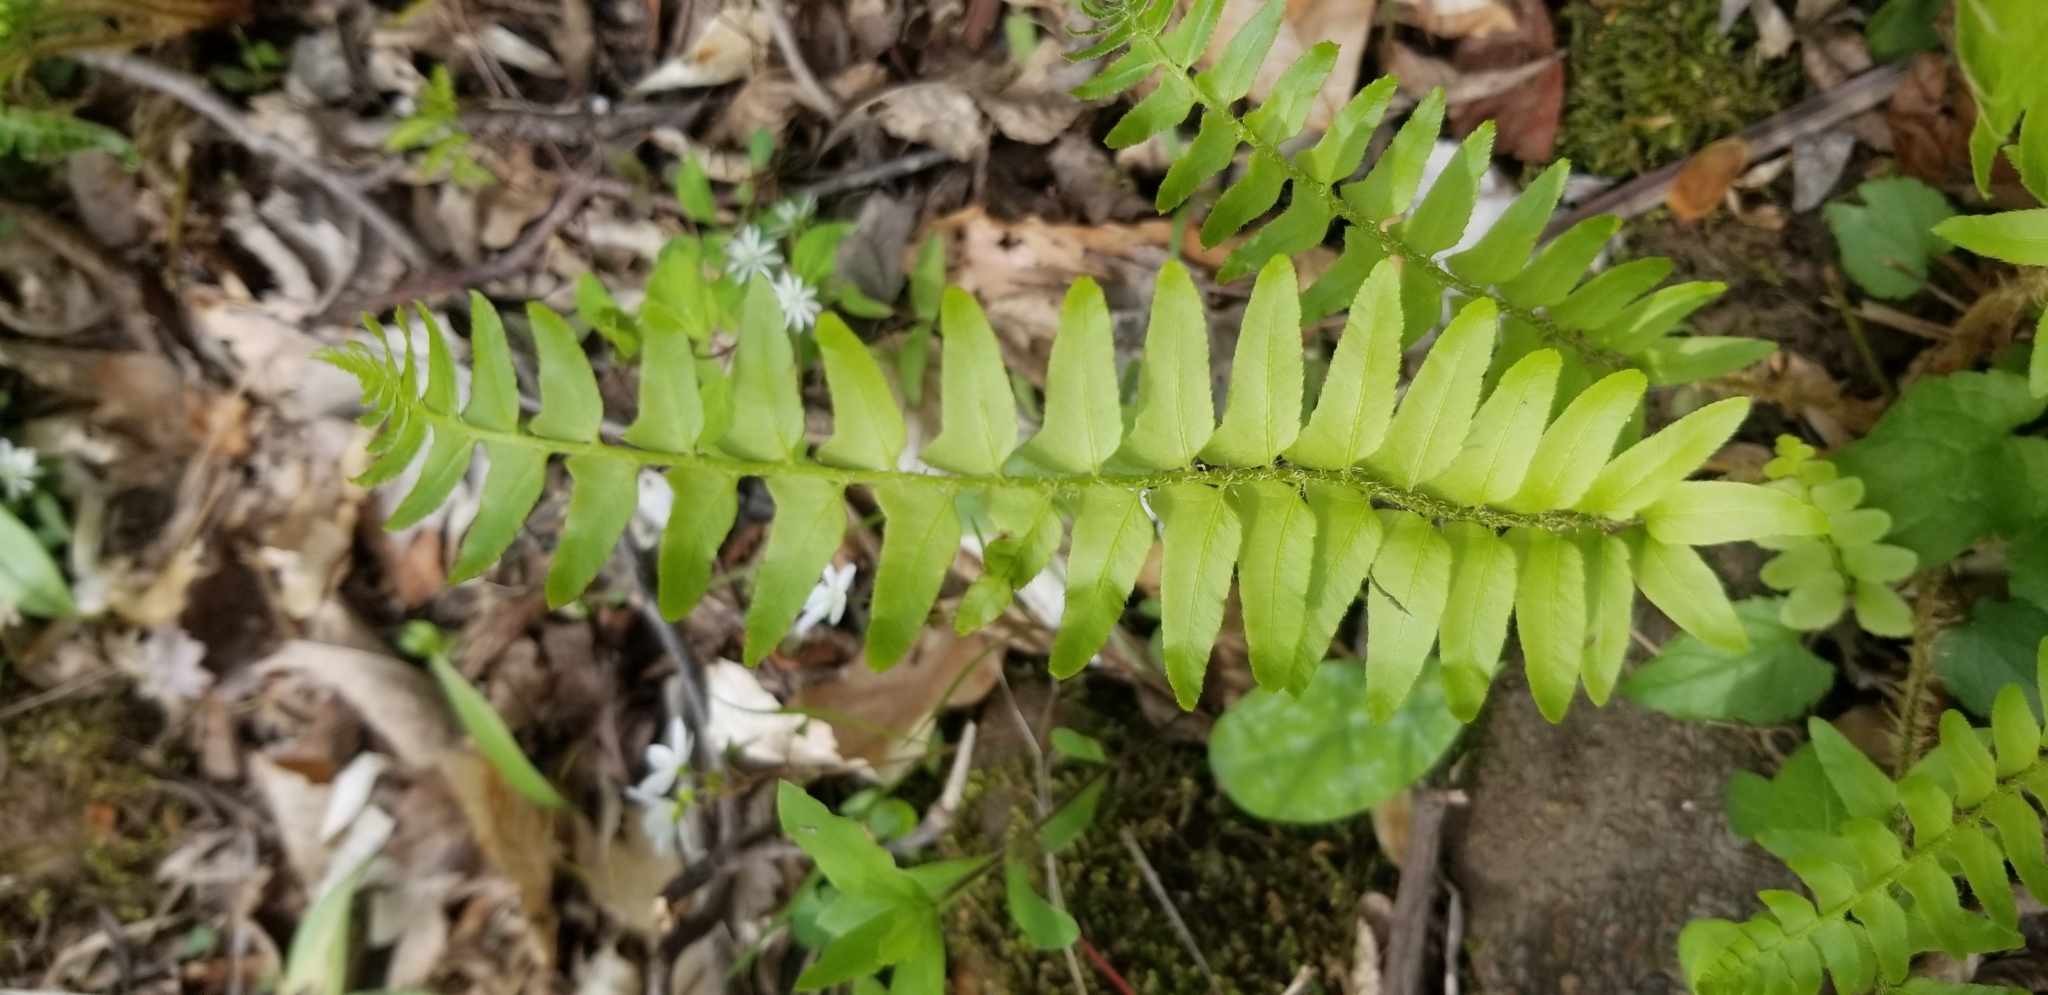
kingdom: Plantae
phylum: Tracheophyta
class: Polypodiopsida
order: Polypodiales
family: Dryopteridaceae
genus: Polystichum
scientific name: Polystichum acrostichoides
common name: Christmas fern
